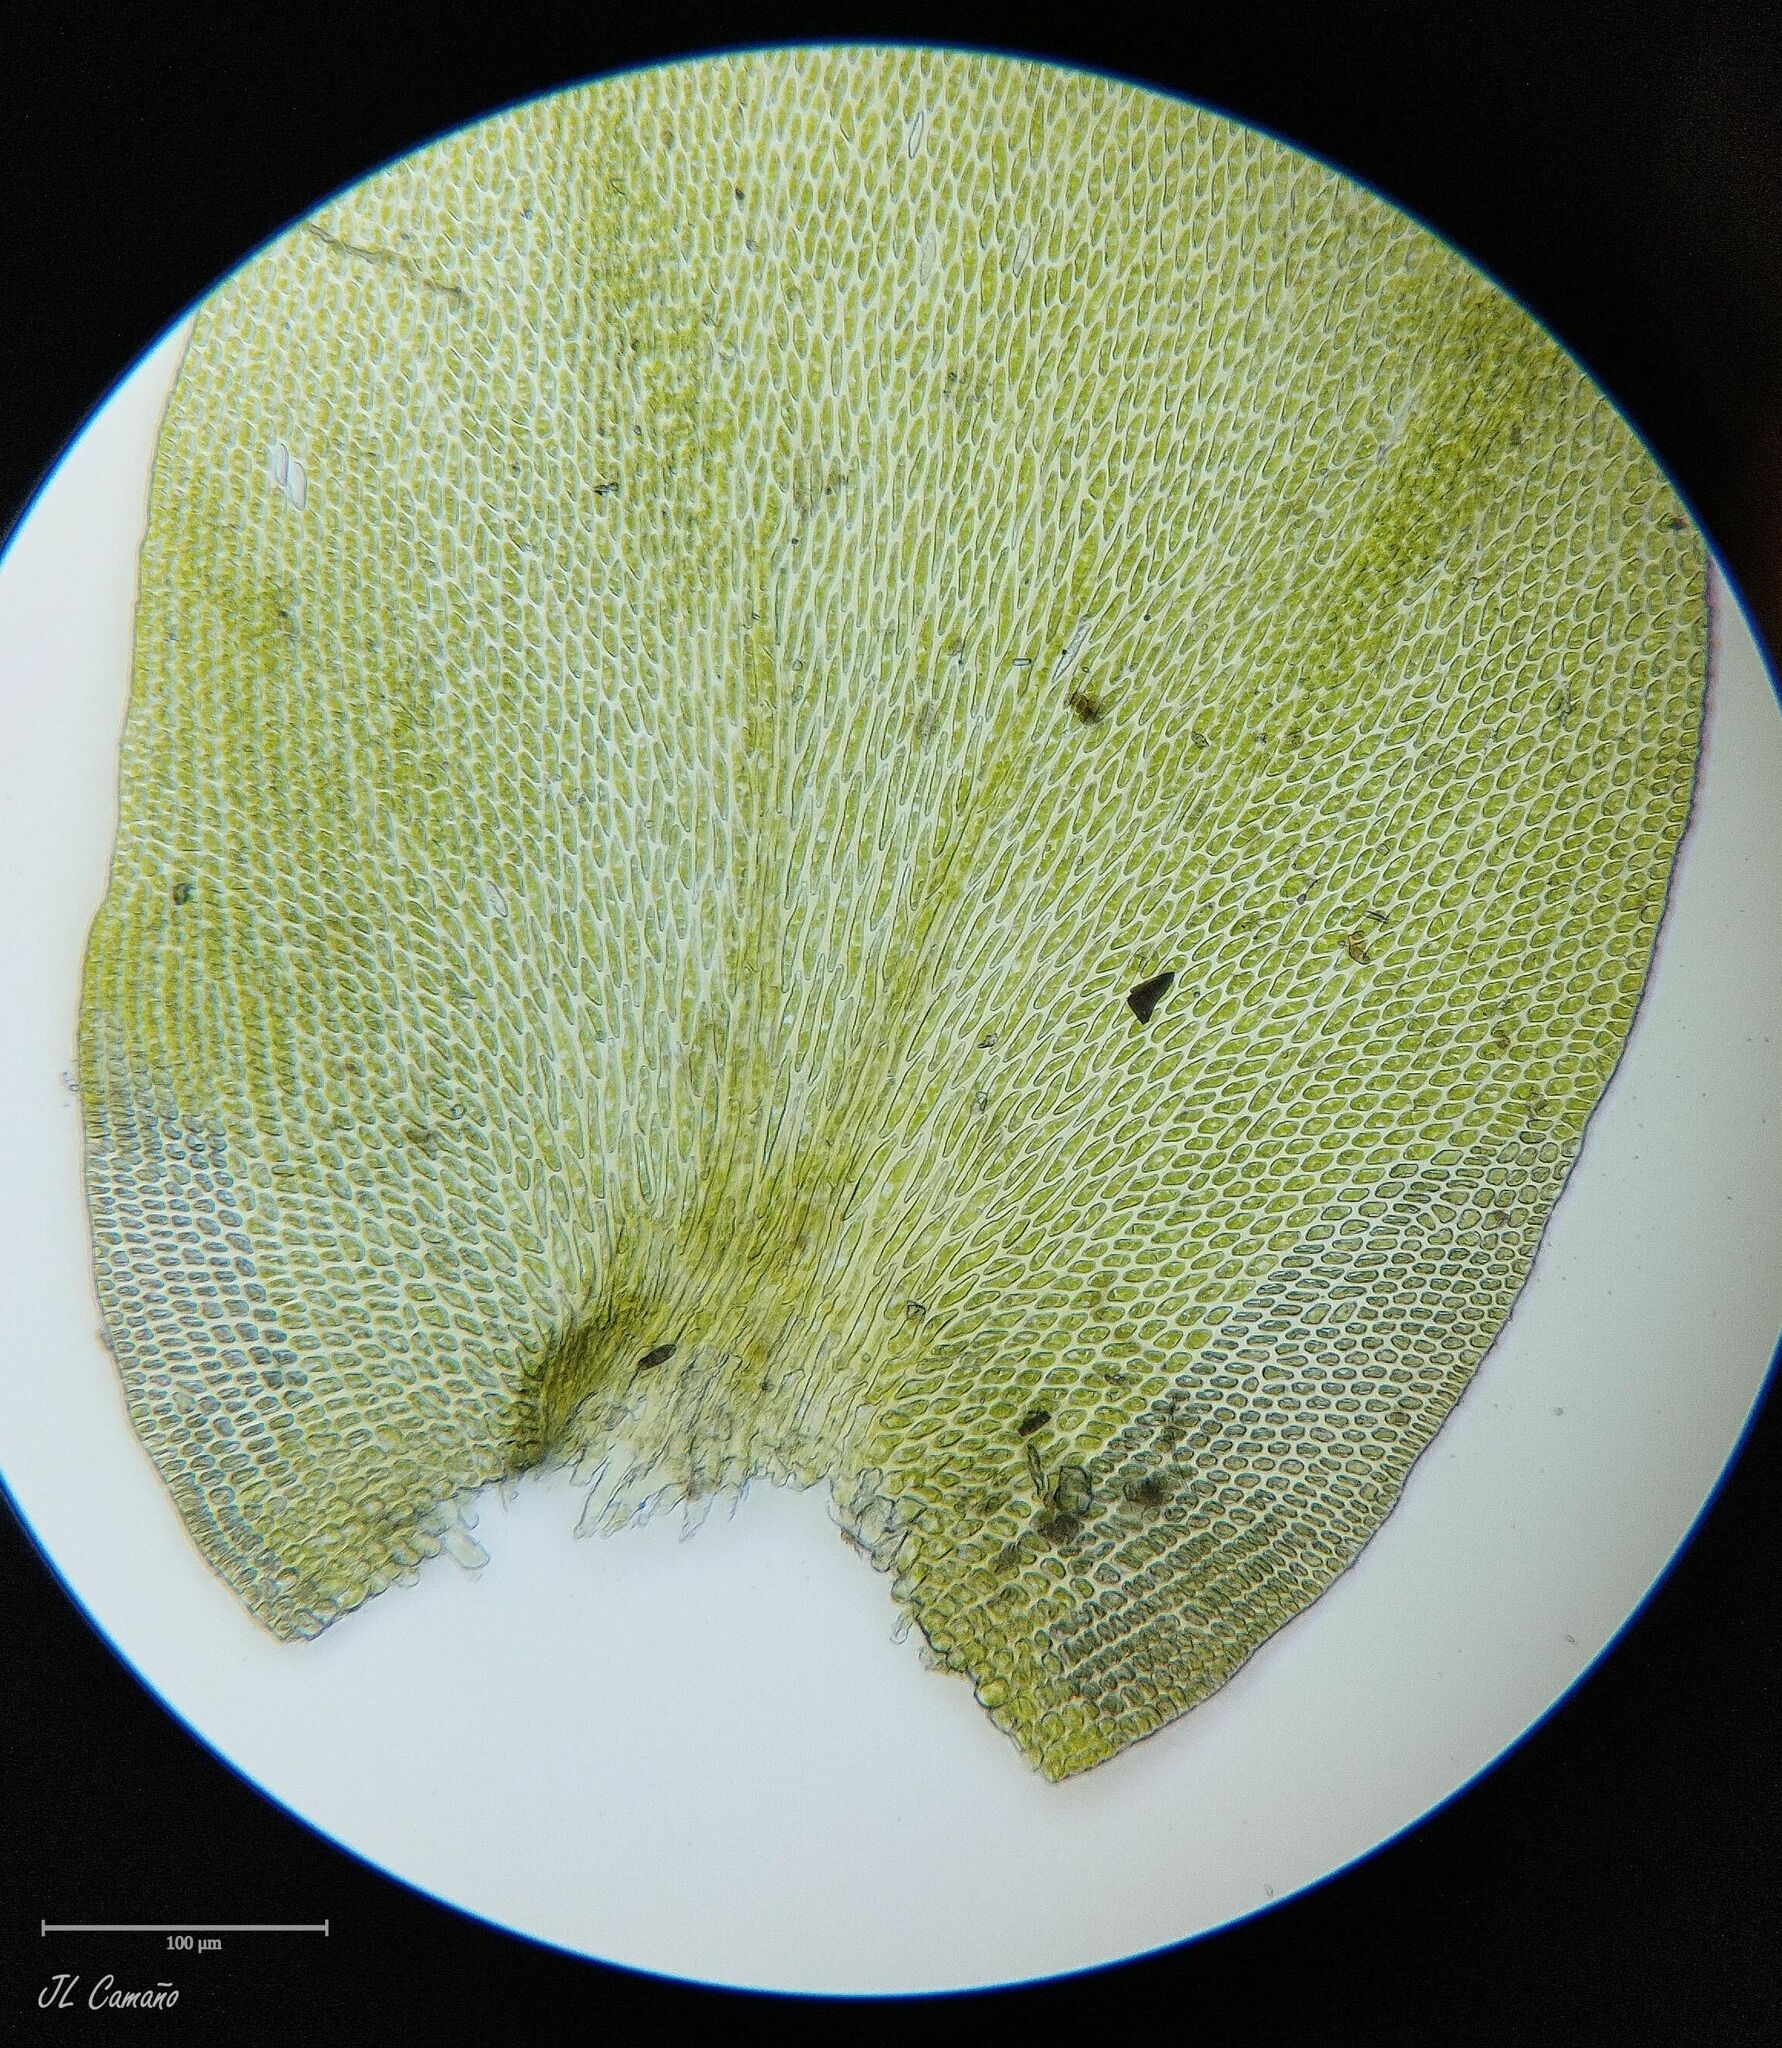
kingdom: Plantae
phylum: Bryophyta
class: Bryopsida
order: Hypnales
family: Lembophyllaceae
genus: Nogopterium
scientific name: Nogopterium gracile
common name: Bird's-foot wing-moss
